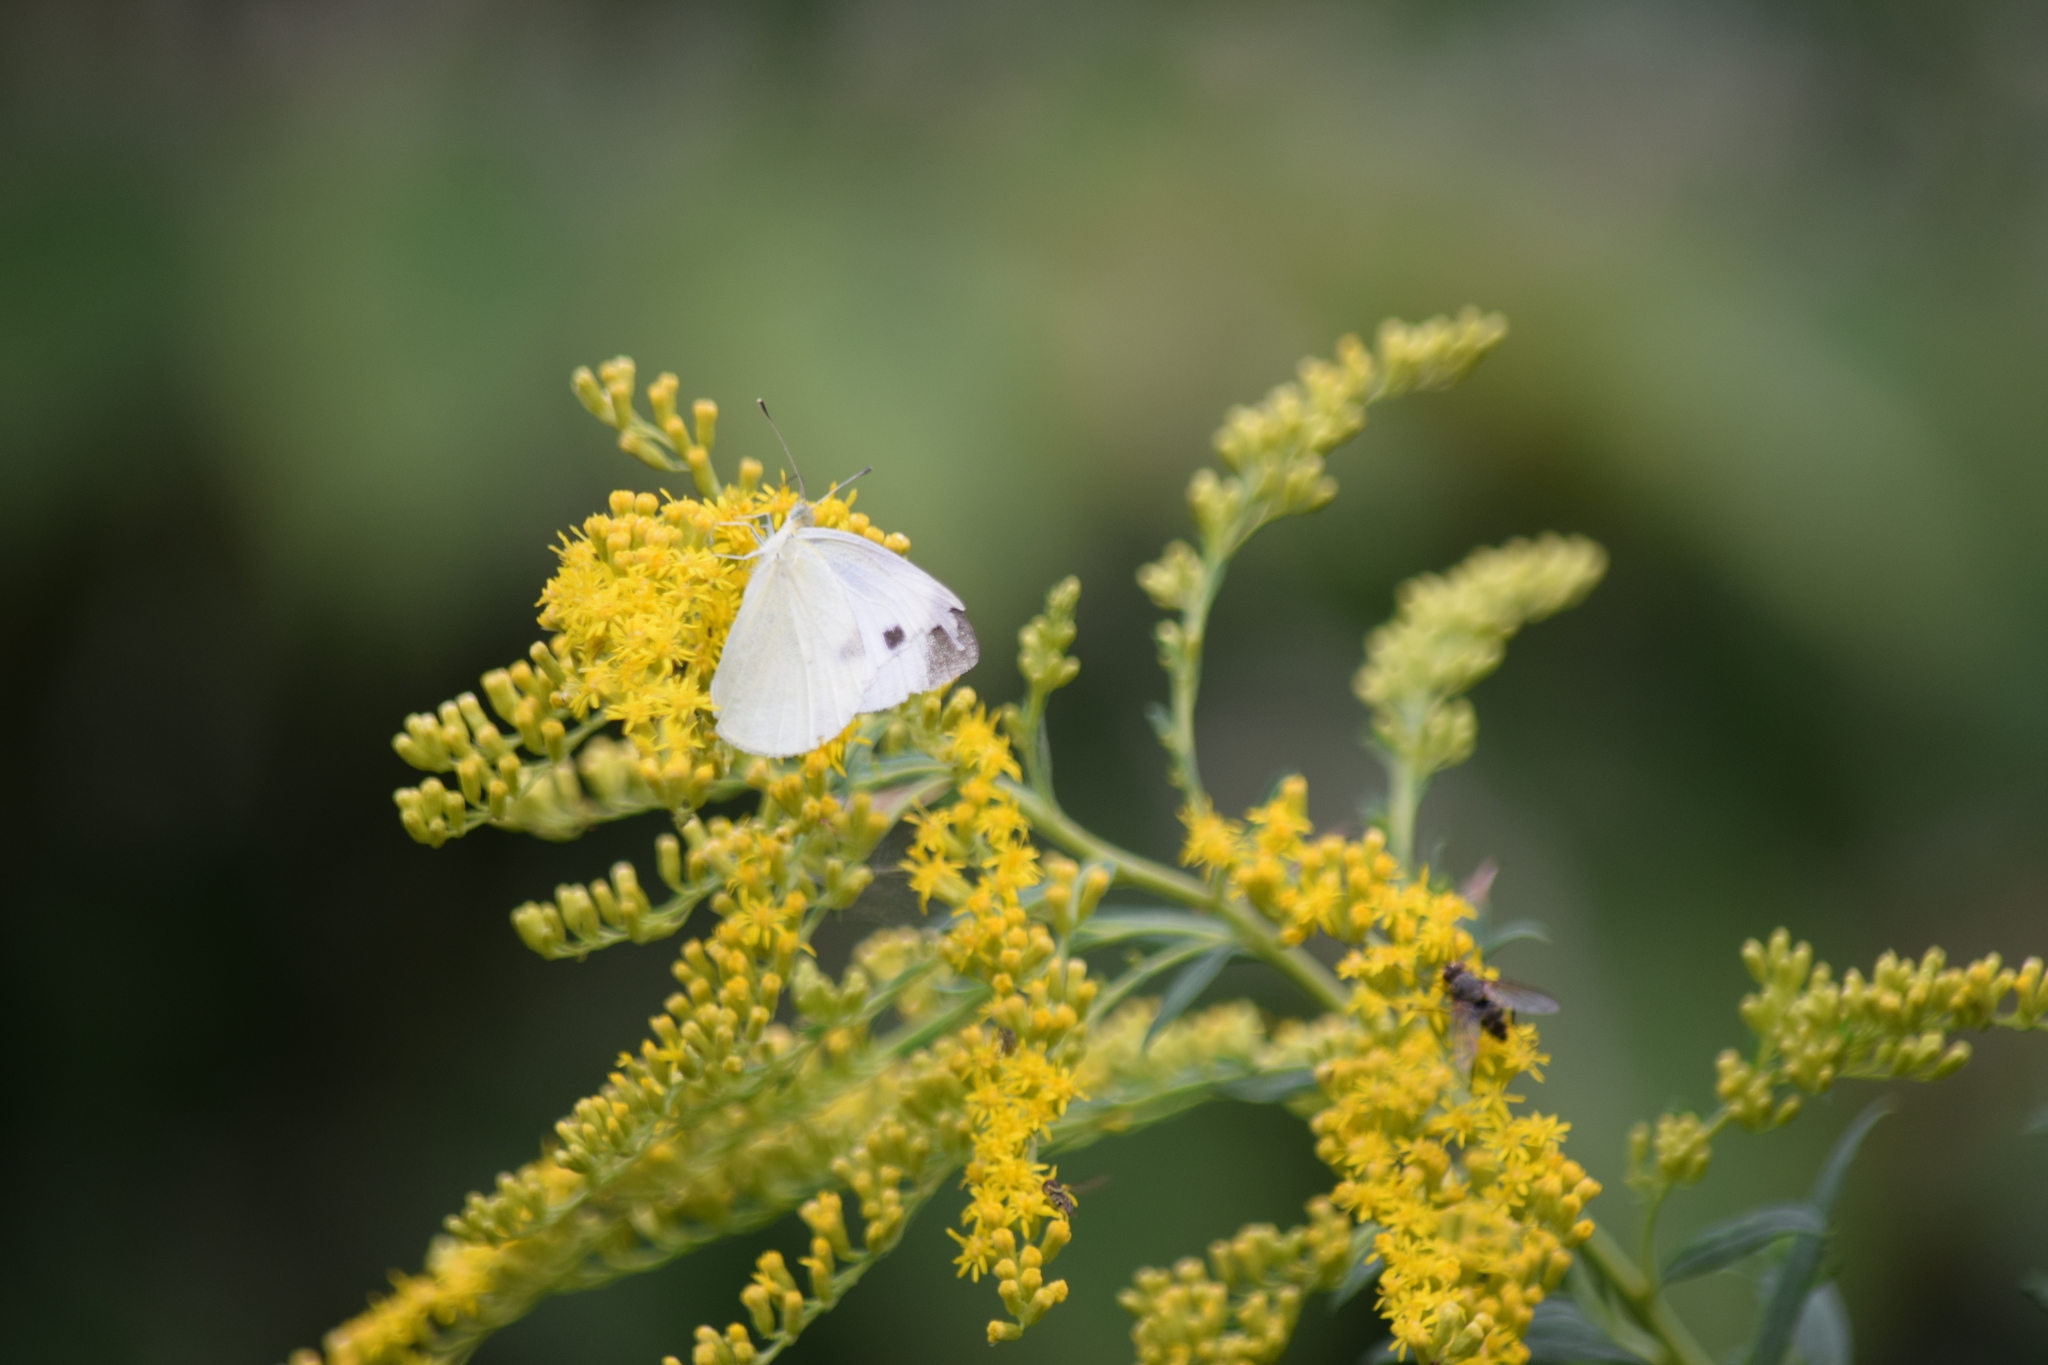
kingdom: Animalia
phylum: Arthropoda
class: Insecta
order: Lepidoptera
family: Pieridae
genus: Pieris
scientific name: Pieris rapae
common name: Small white
